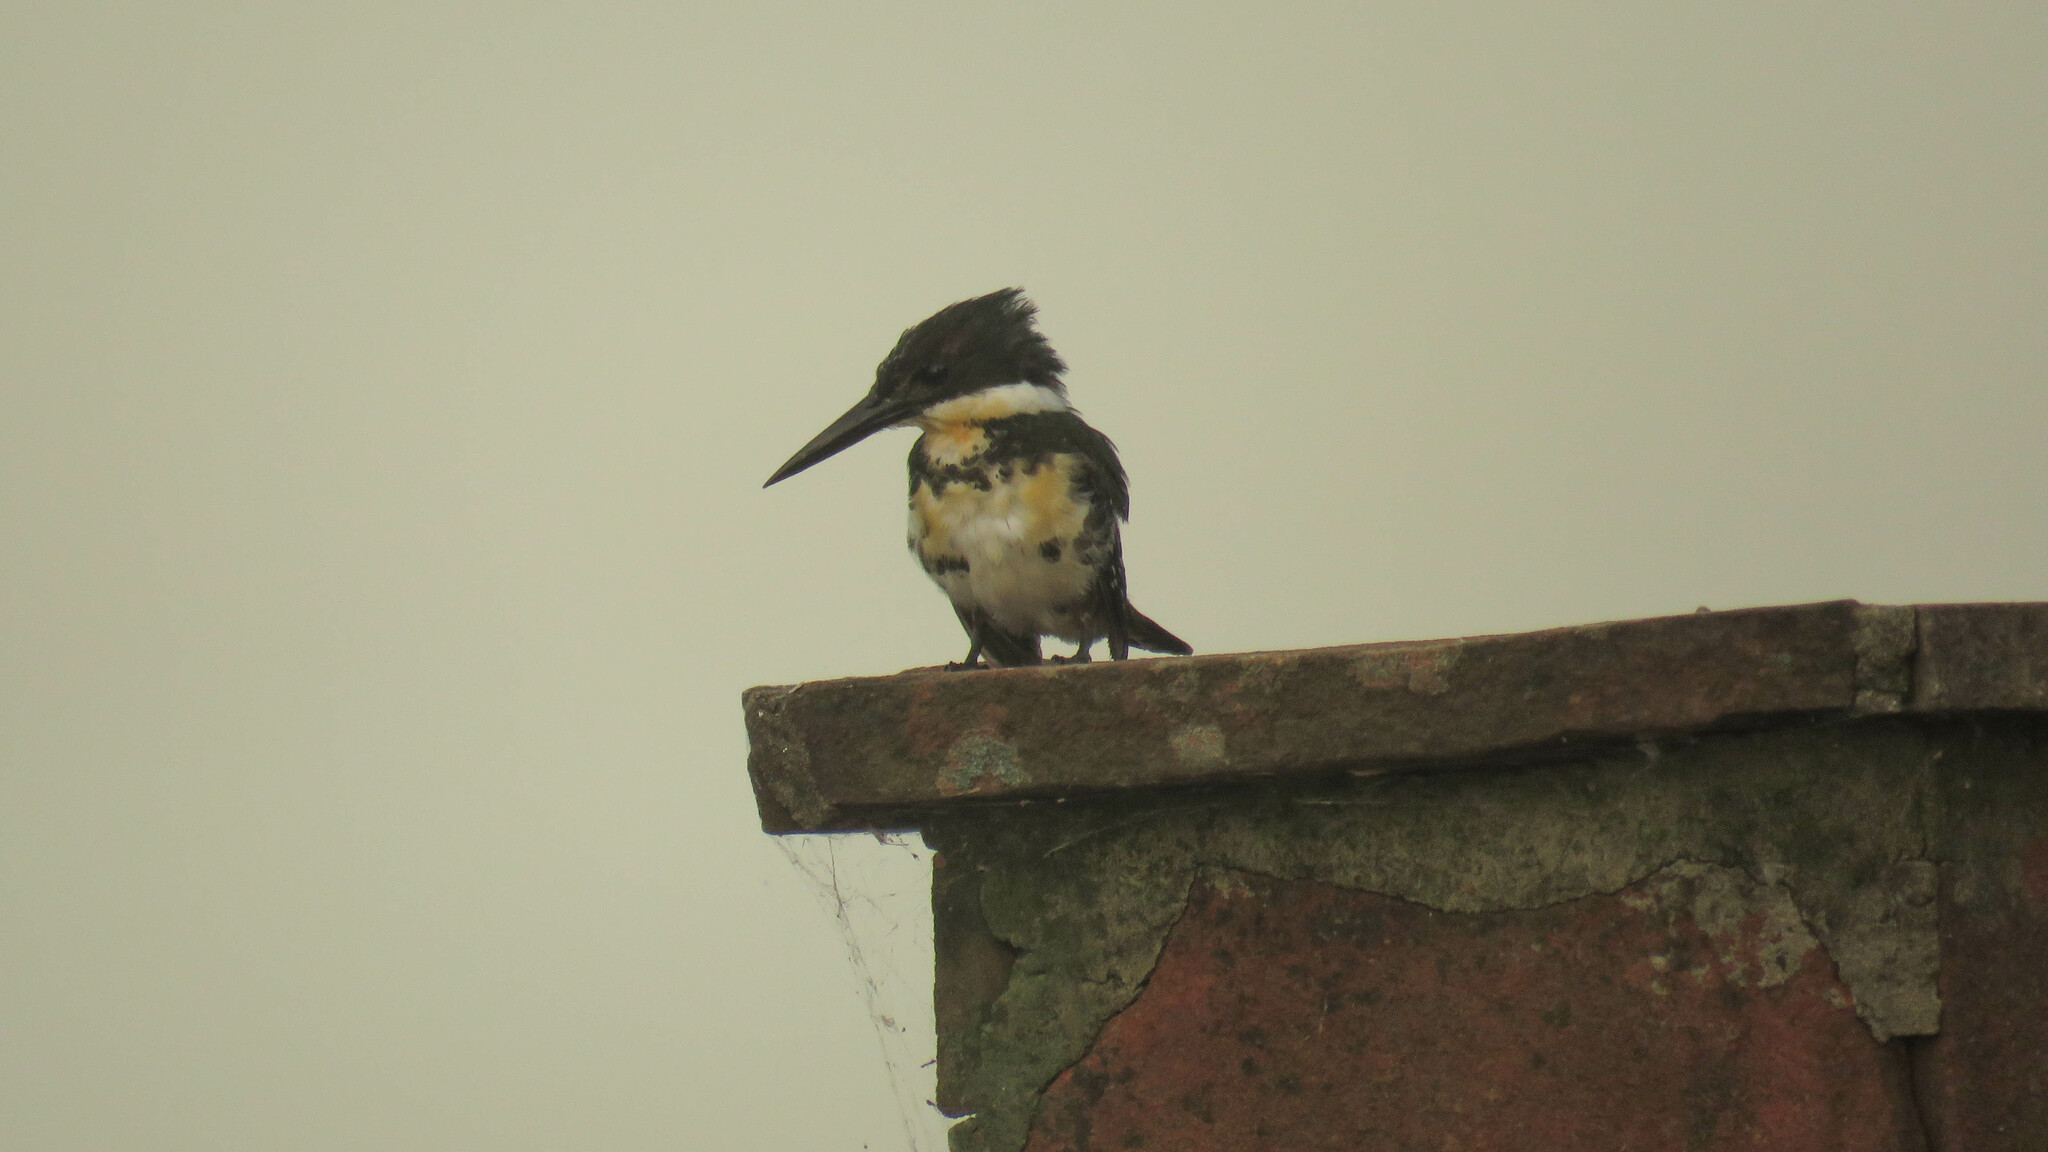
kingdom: Animalia
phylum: Chordata
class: Aves
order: Coraciiformes
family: Alcedinidae
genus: Chloroceryle
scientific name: Chloroceryle americana
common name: Green kingfisher
